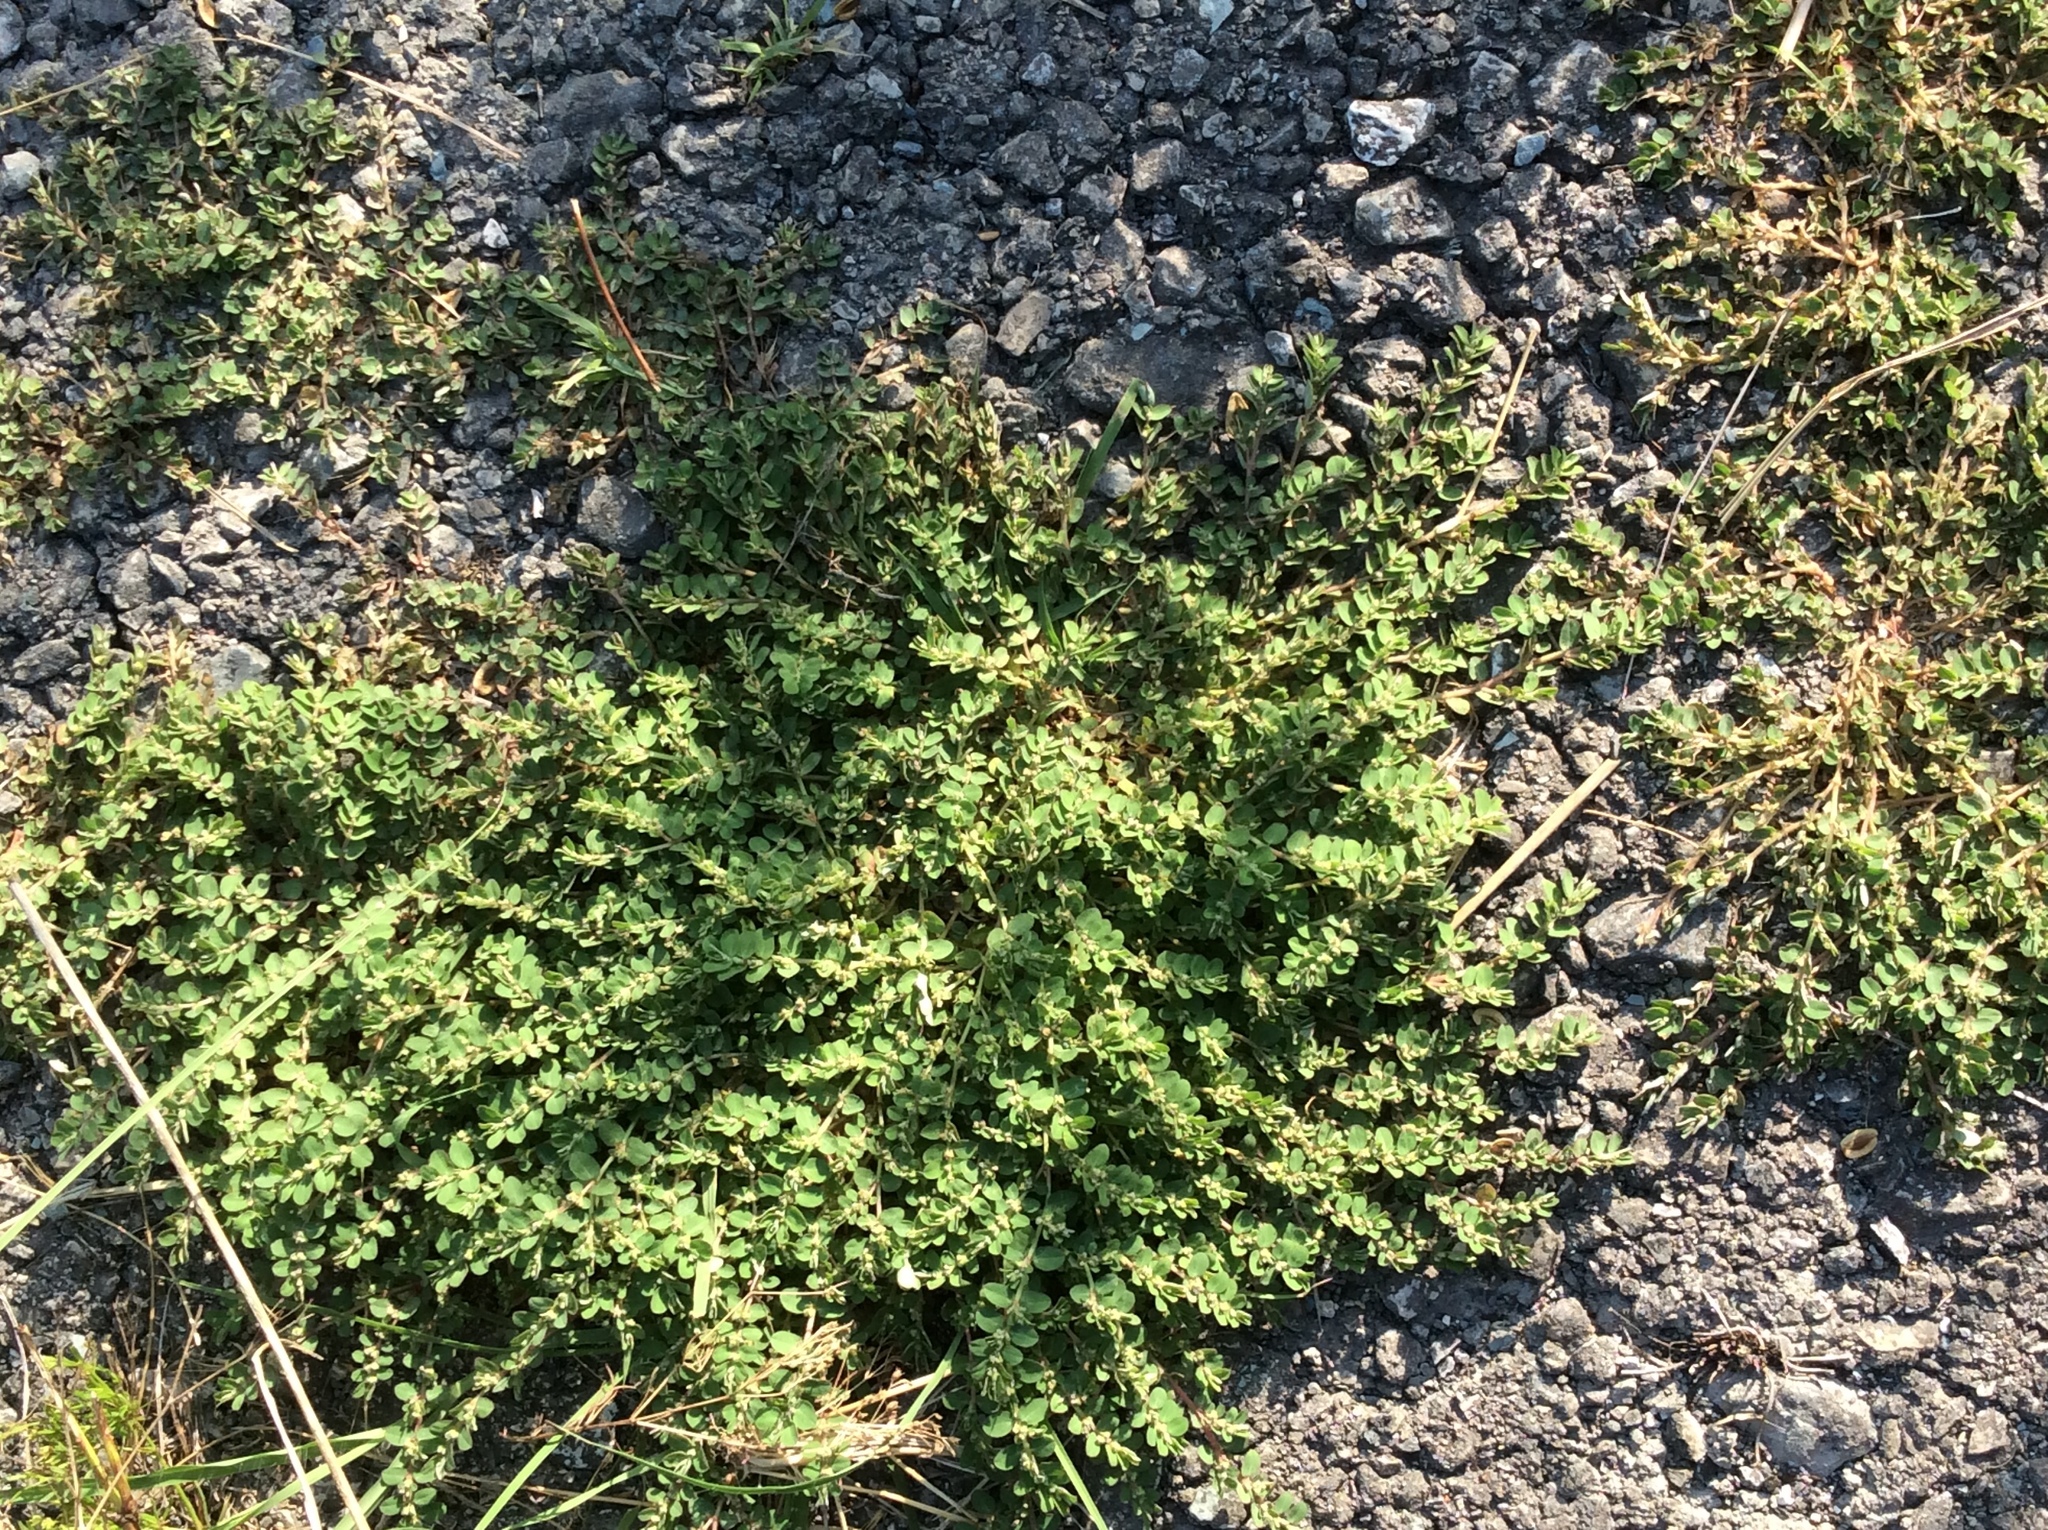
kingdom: Plantae
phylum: Tracheophyta
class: Magnoliopsida
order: Malpighiales
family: Euphorbiaceae
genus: Euphorbia
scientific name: Euphorbia prostrata
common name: Prostrate sandmat
